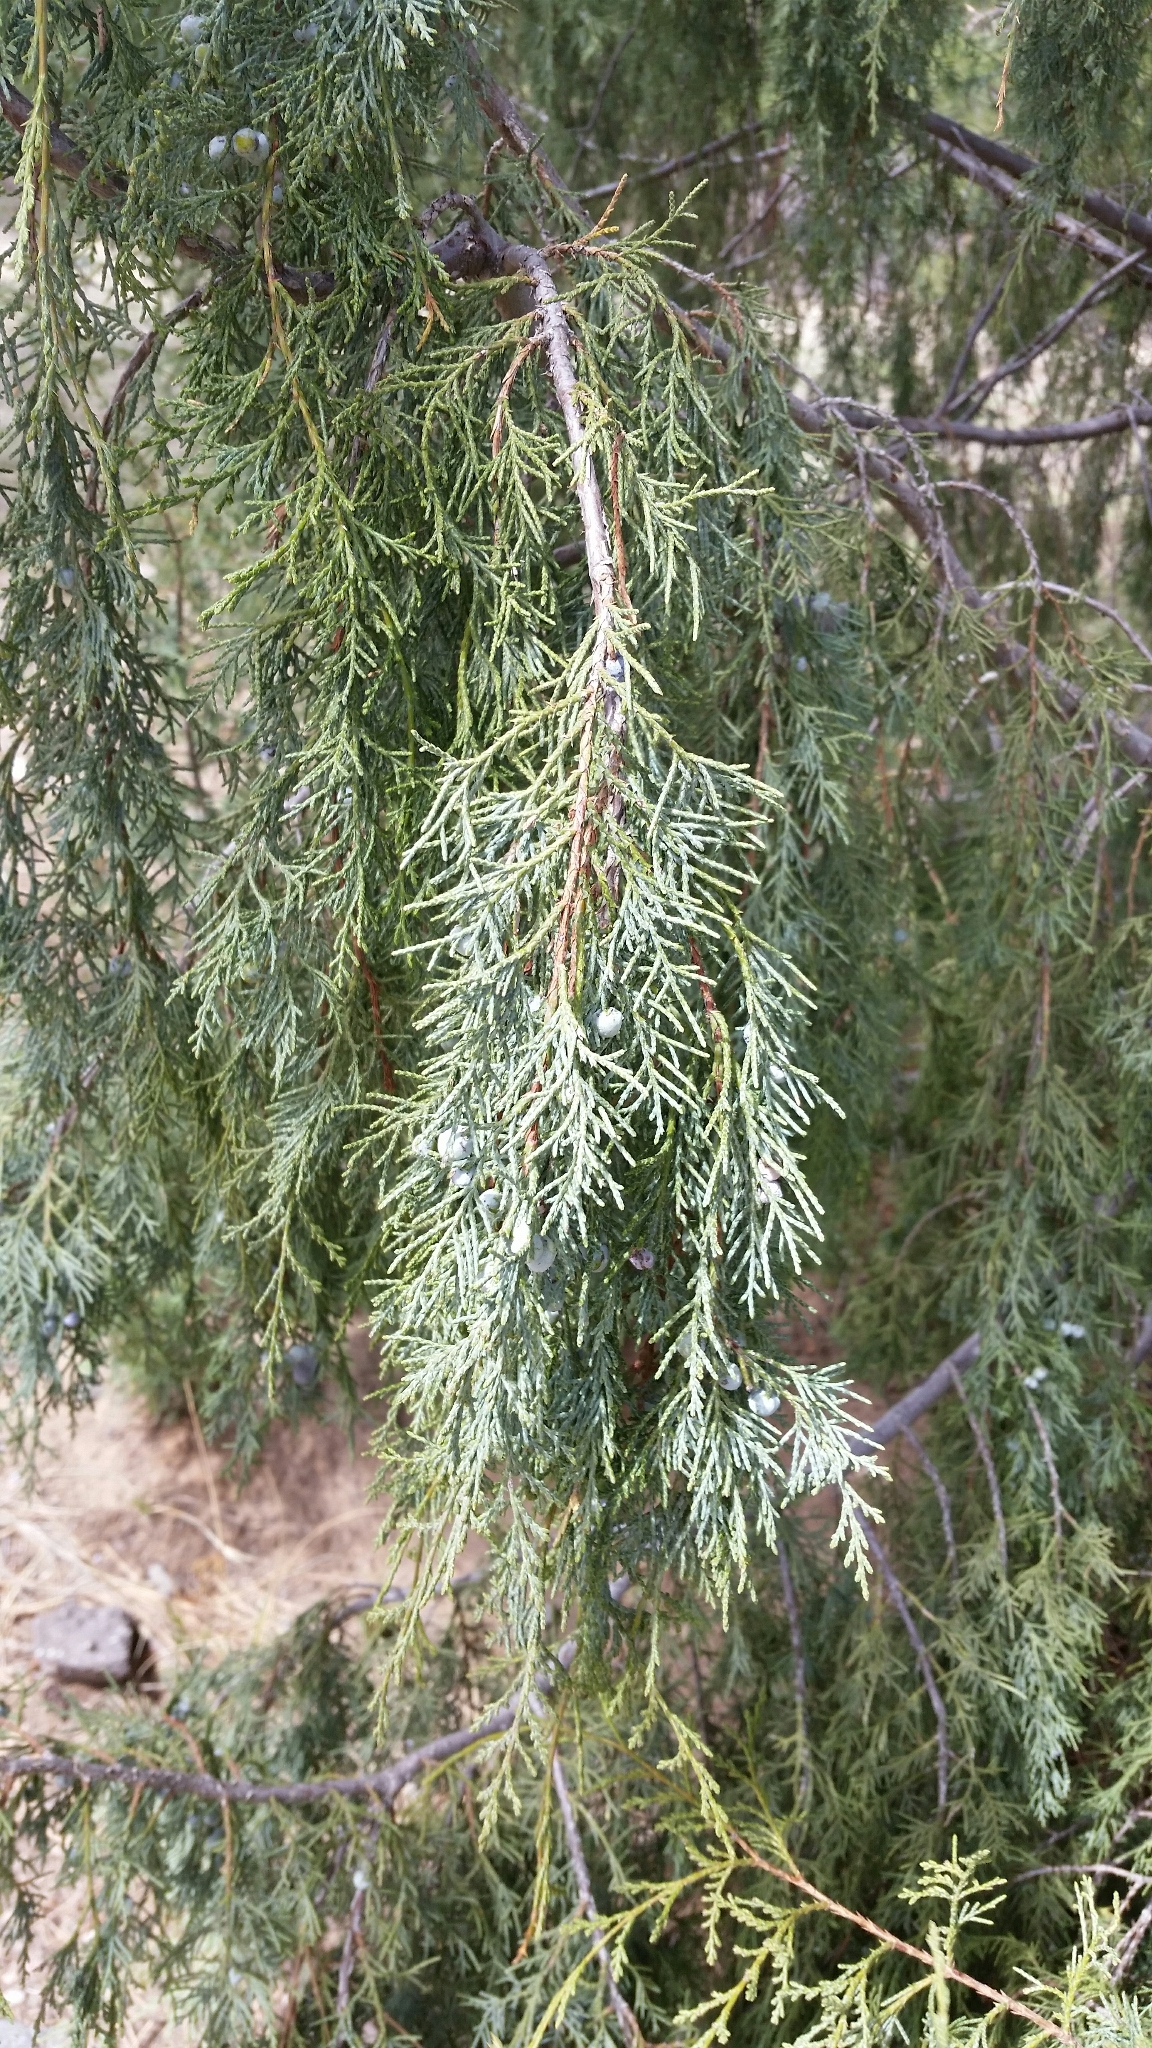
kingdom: Plantae
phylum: Tracheophyta
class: Pinopsida
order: Pinales
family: Cupressaceae
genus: Juniperus
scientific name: Juniperus scopulorum
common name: Rocky mountain juniper
